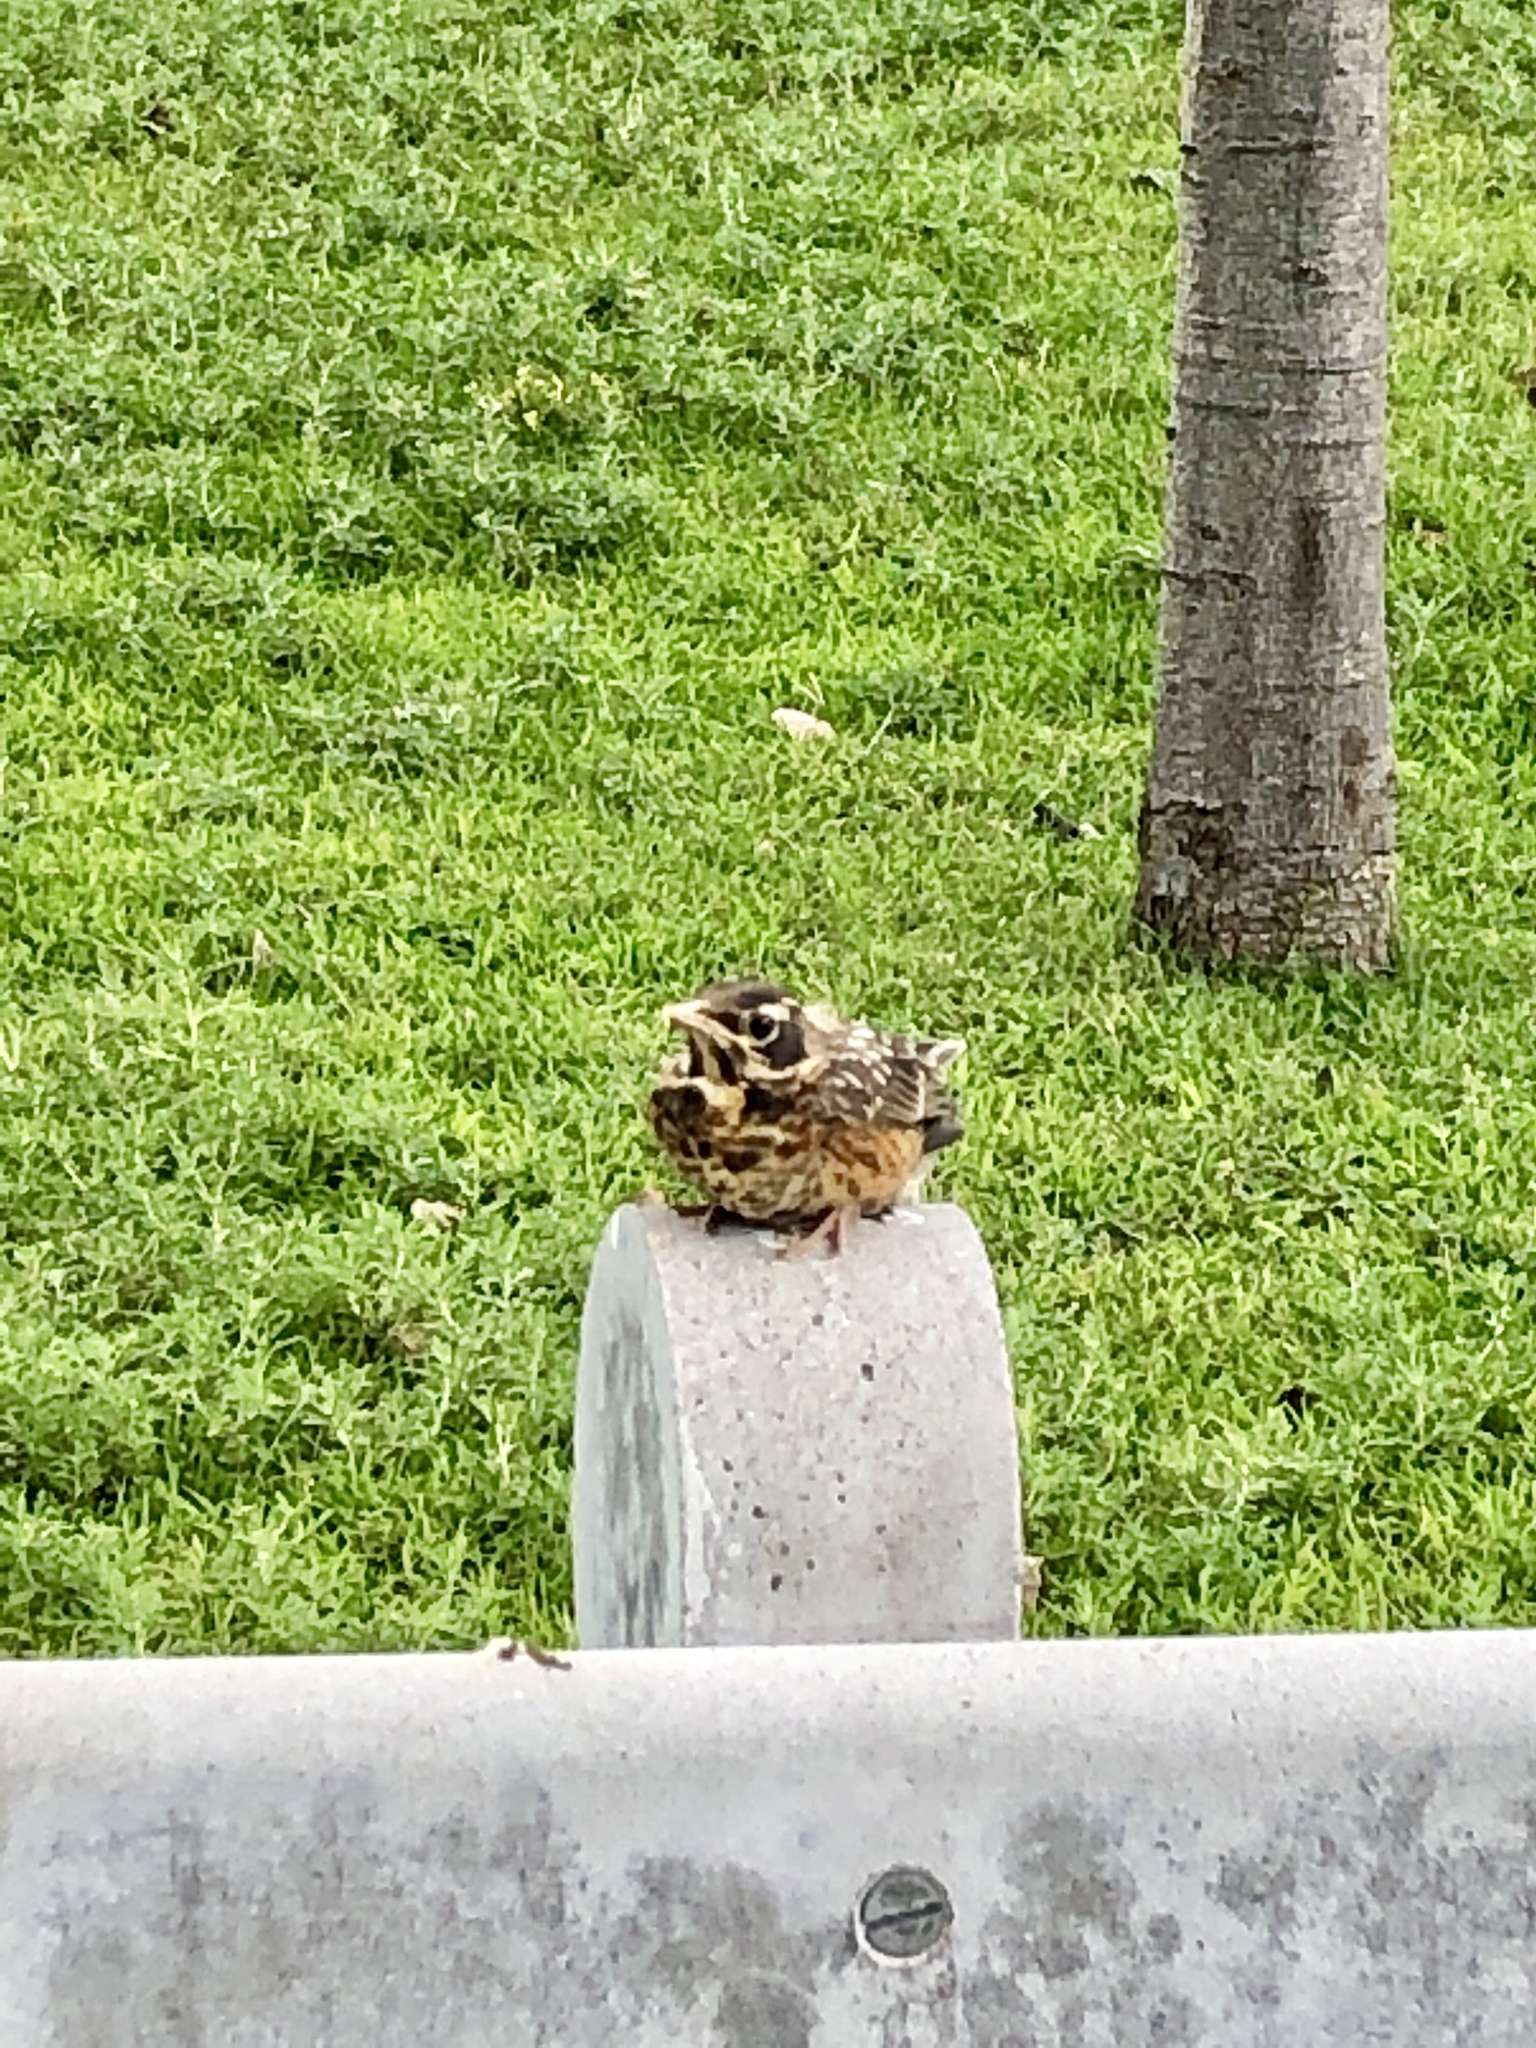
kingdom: Animalia
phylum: Chordata
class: Aves
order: Passeriformes
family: Turdidae
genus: Turdus
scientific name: Turdus migratorius
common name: American robin
